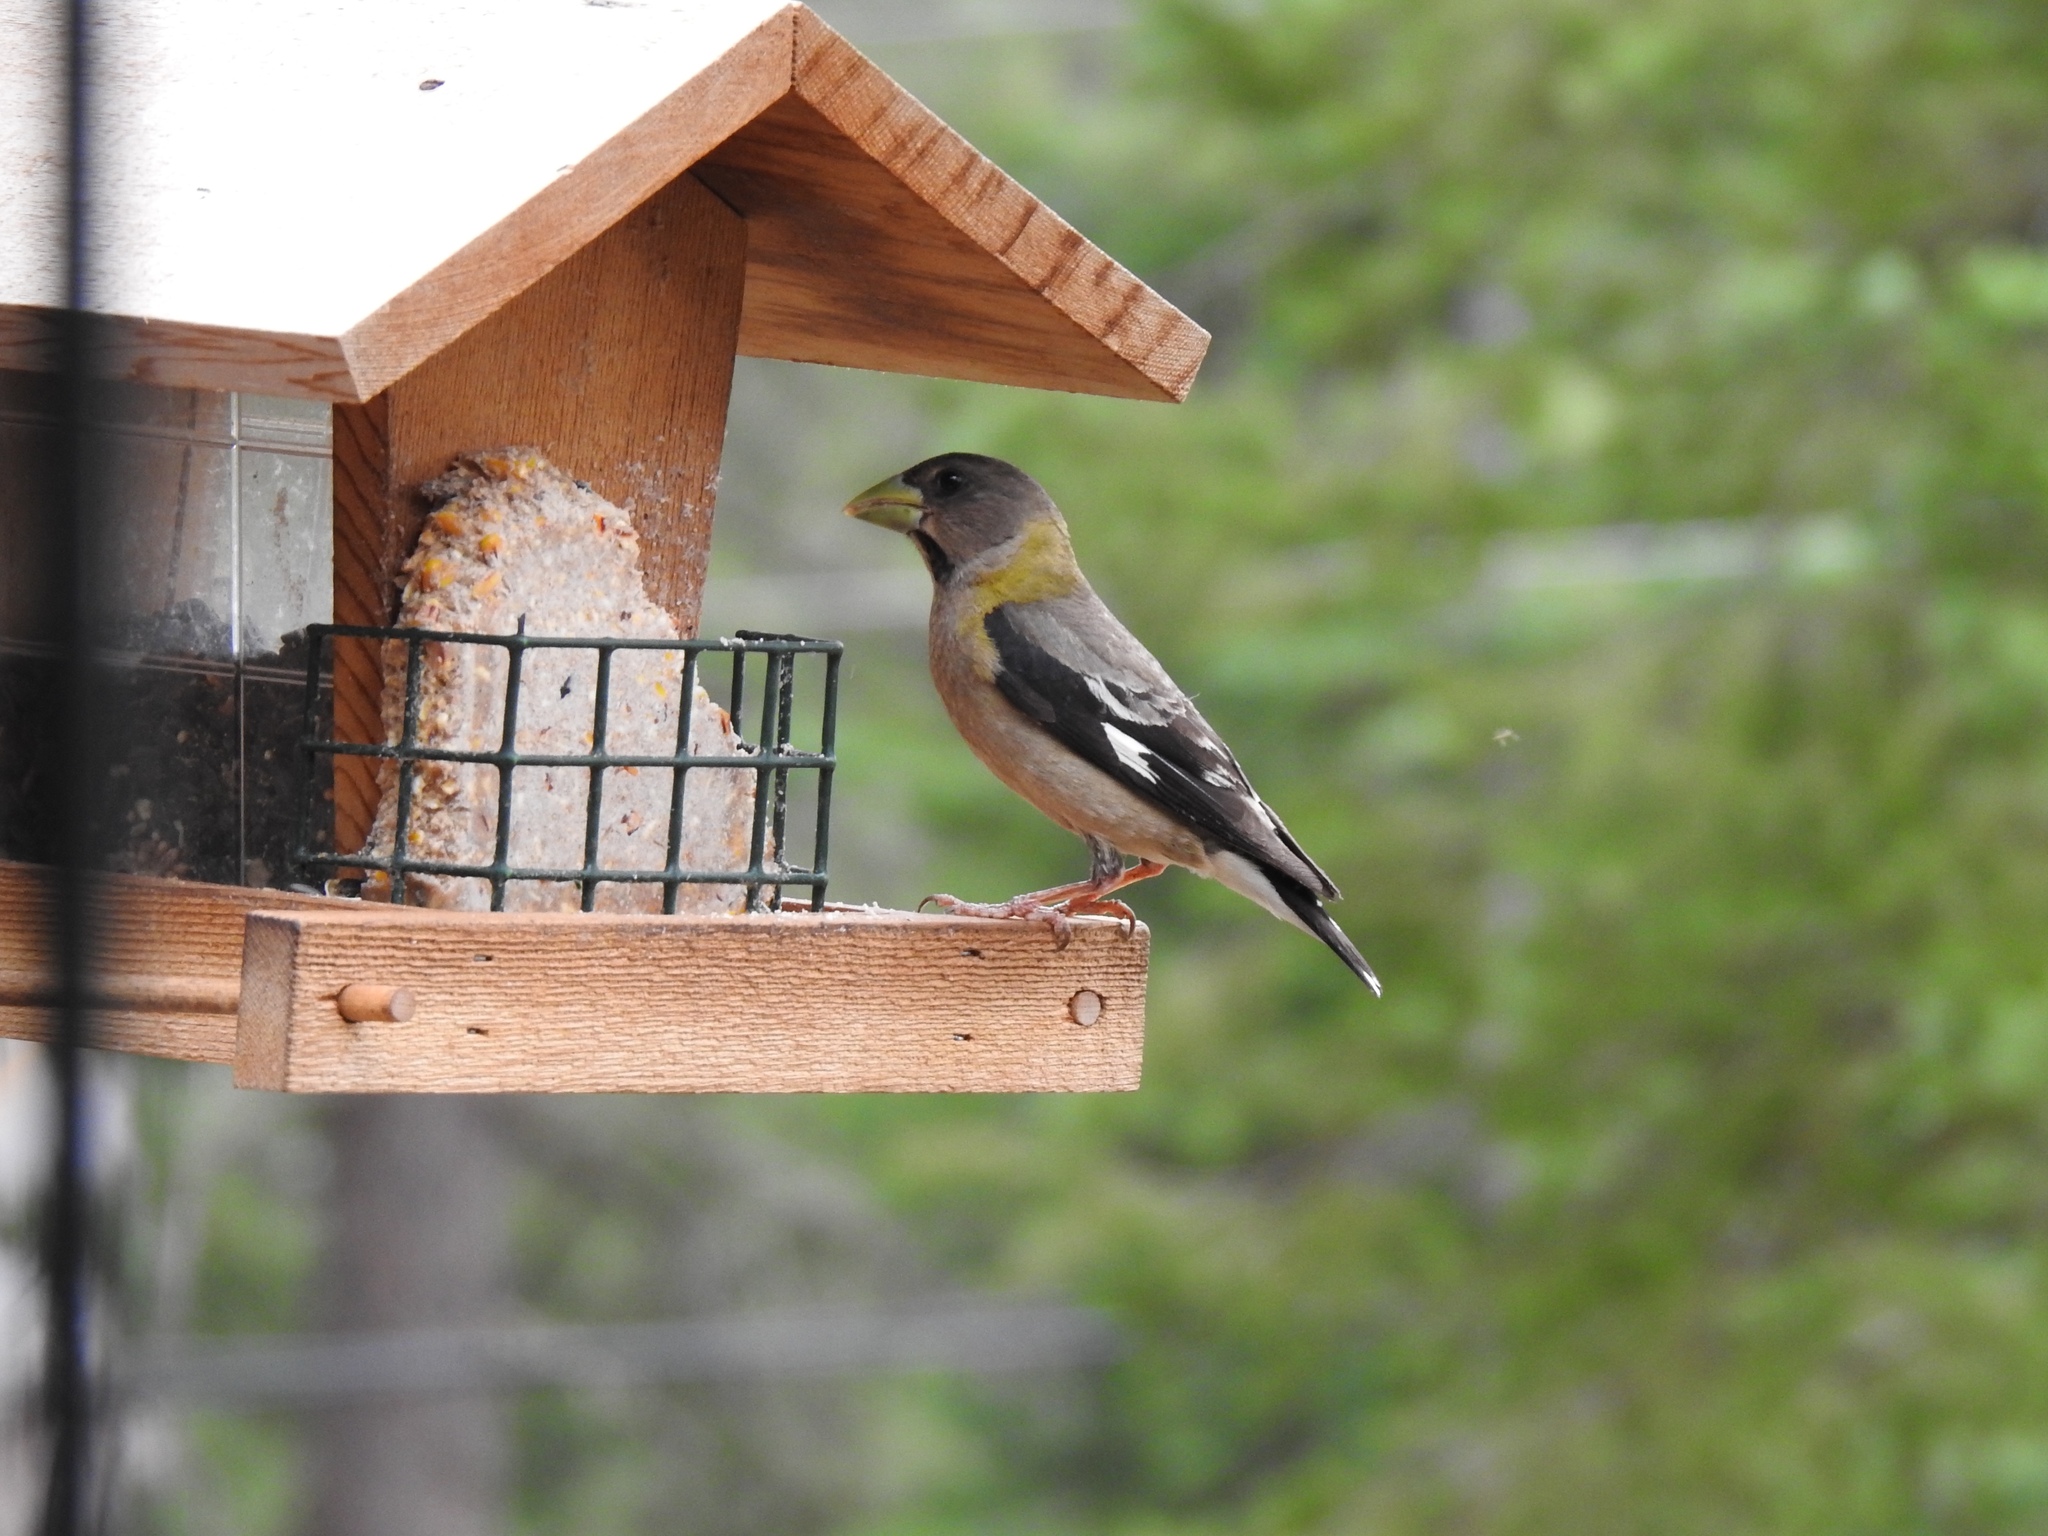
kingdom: Animalia
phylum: Chordata
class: Aves
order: Passeriformes
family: Fringillidae
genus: Hesperiphona
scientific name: Hesperiphona vespertina
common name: Evening grosbeak
